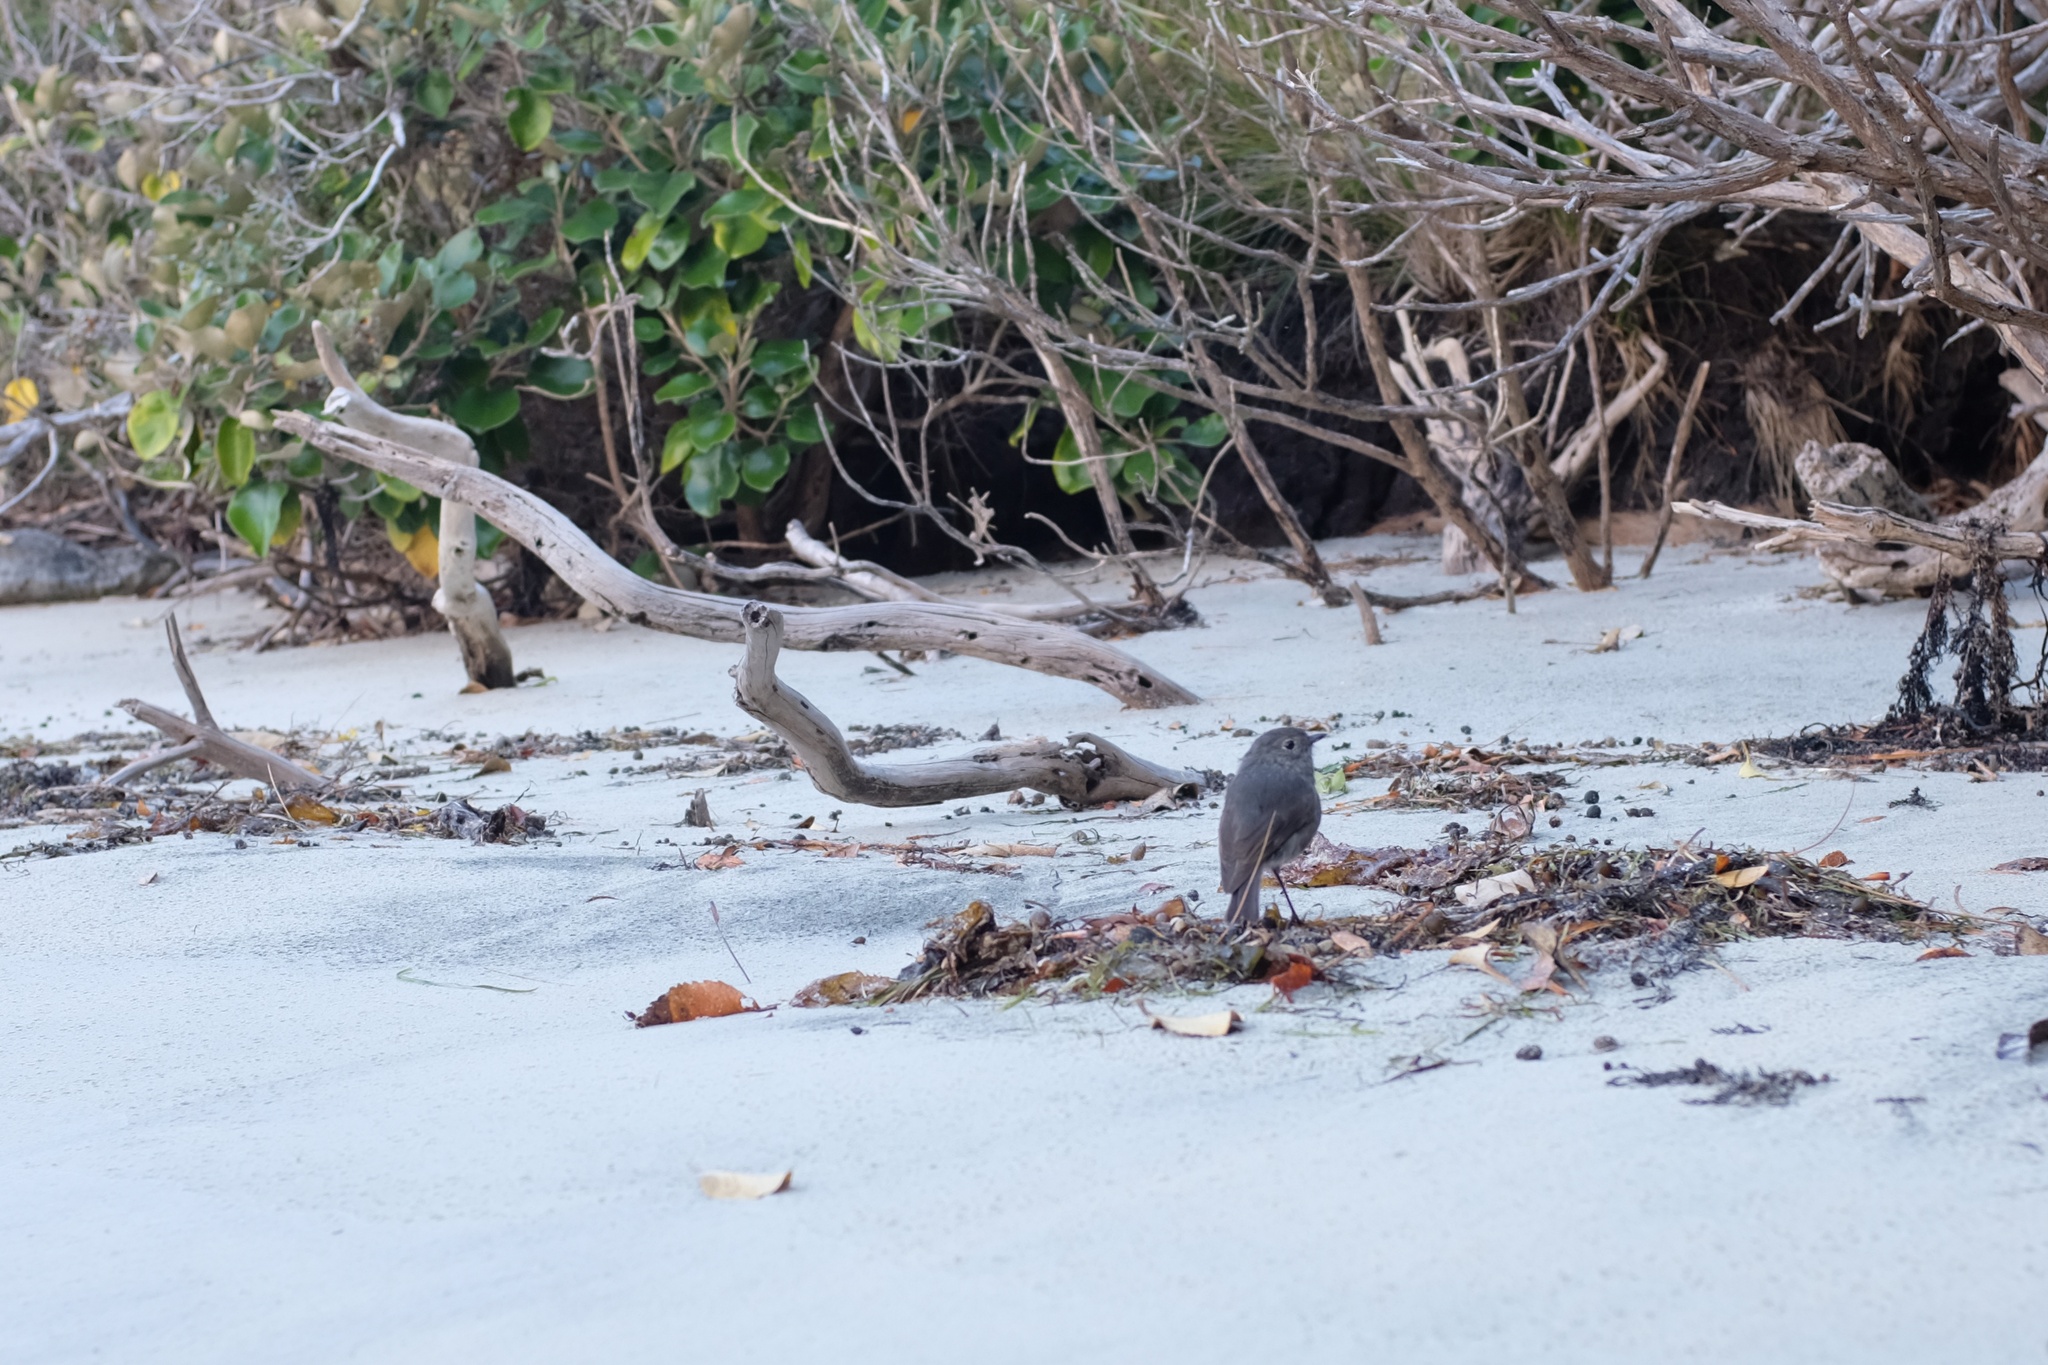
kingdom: Animalia
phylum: Chordata
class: Aves
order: Passeriformes
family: Petroicidae
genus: Petroica
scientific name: Petroica australis
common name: New zealand robin
